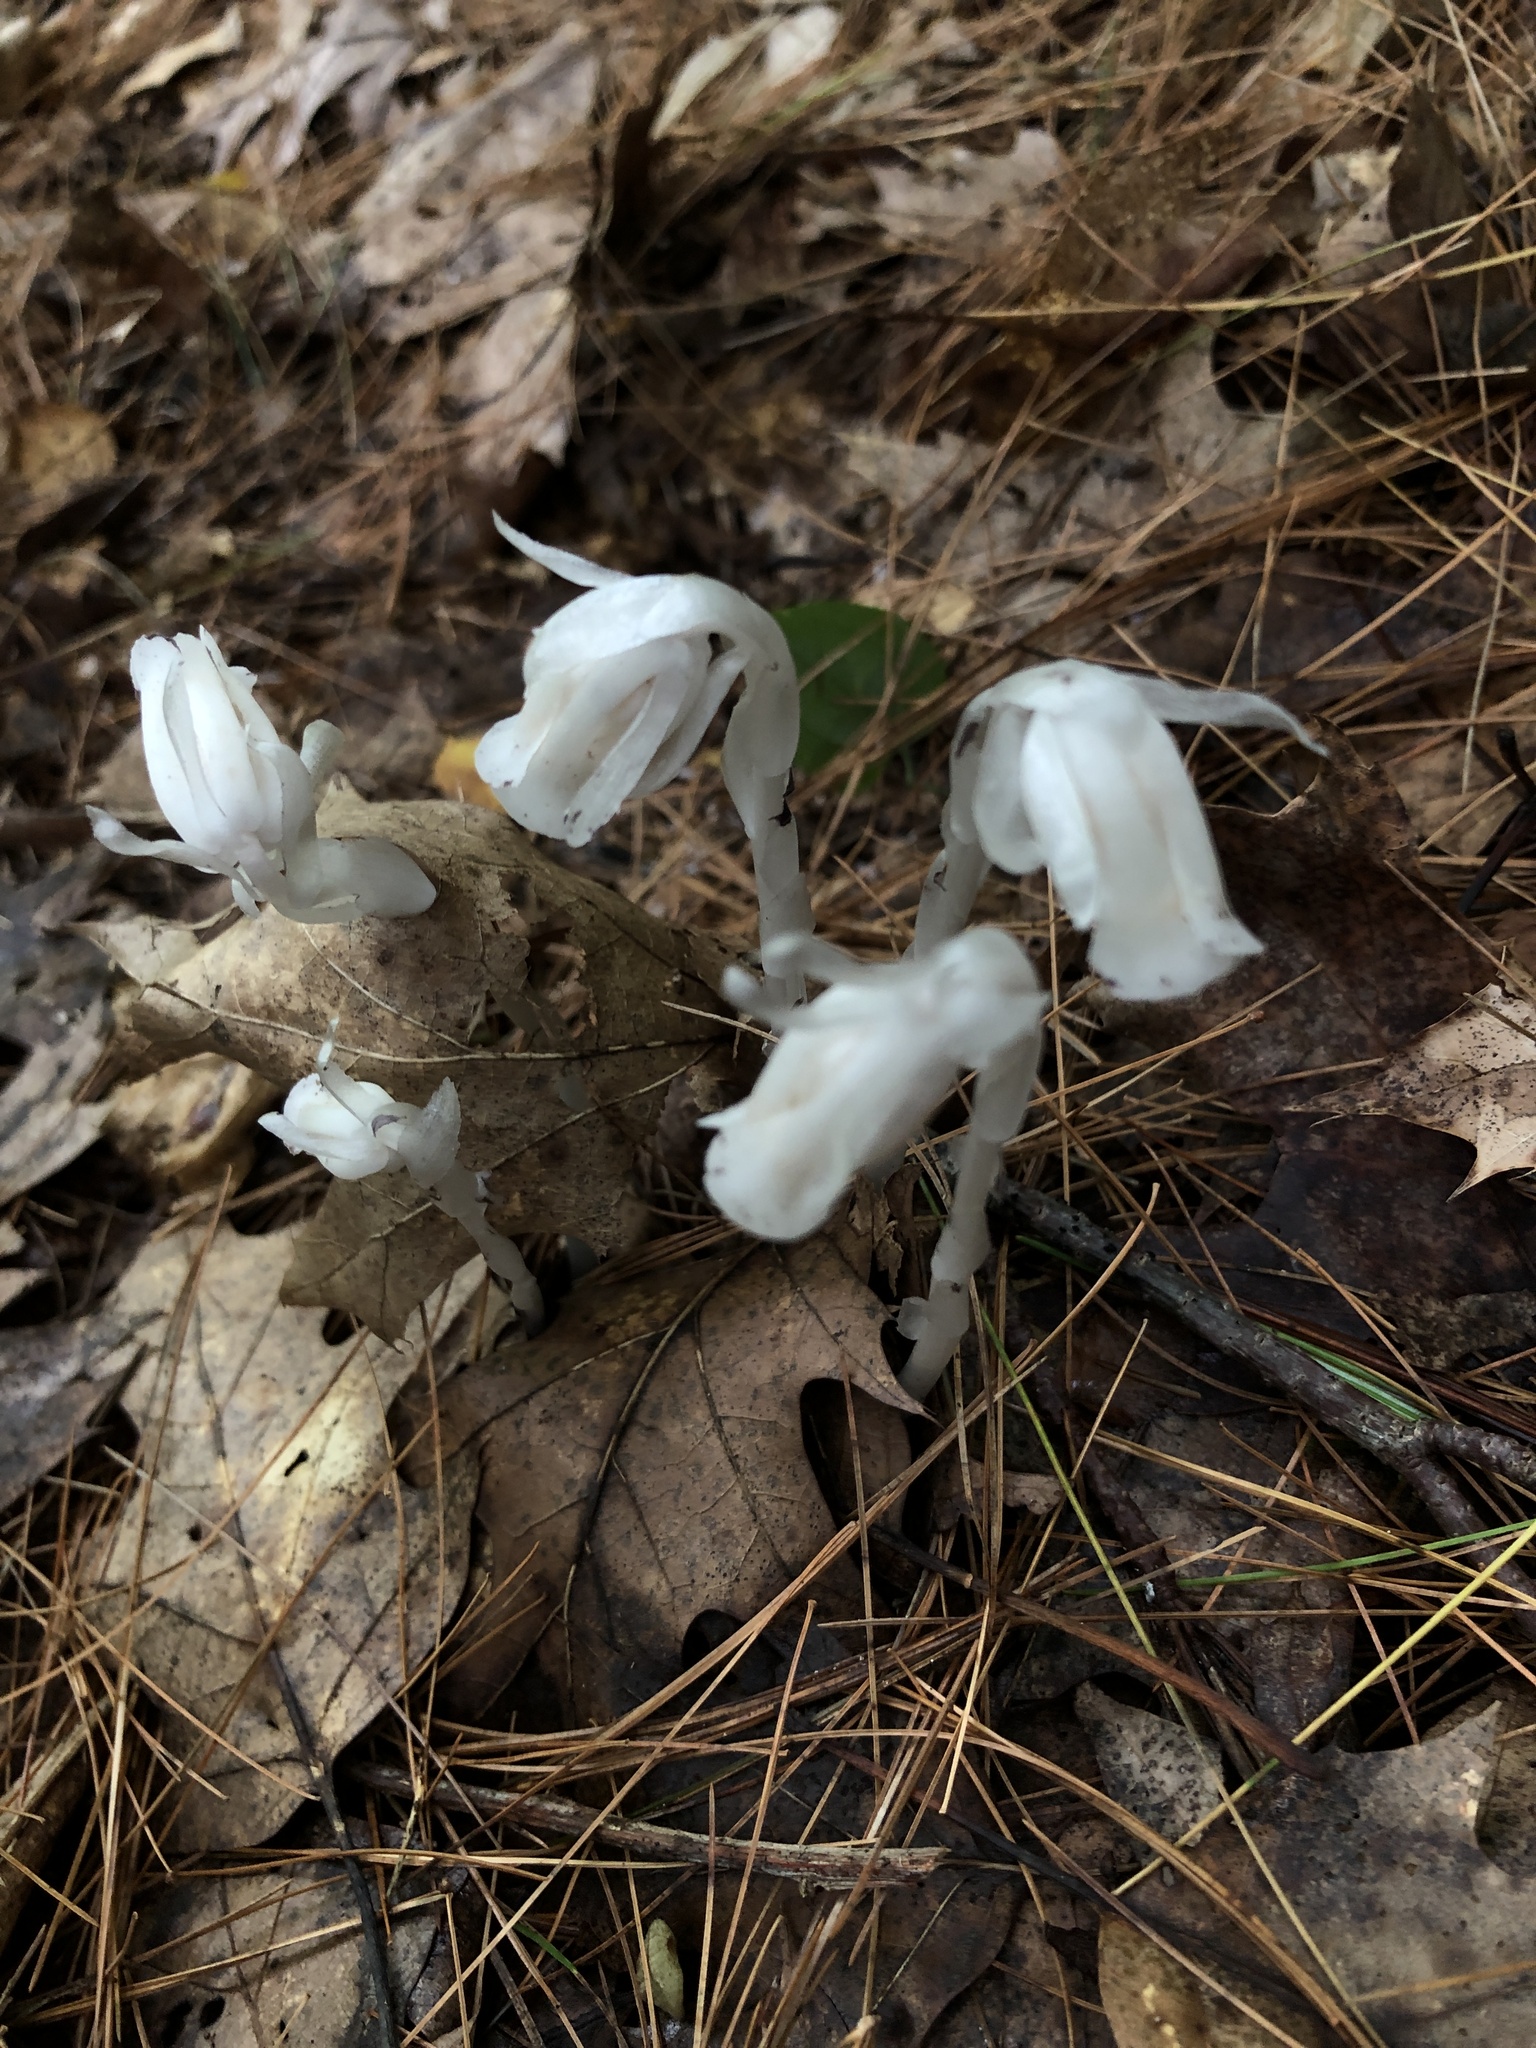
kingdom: Plantae
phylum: Tracheophyta
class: Magnoliopsida
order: Ericales
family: Ericaceae
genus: Monotropa
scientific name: Monotropa uniflora
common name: Convulsion root
